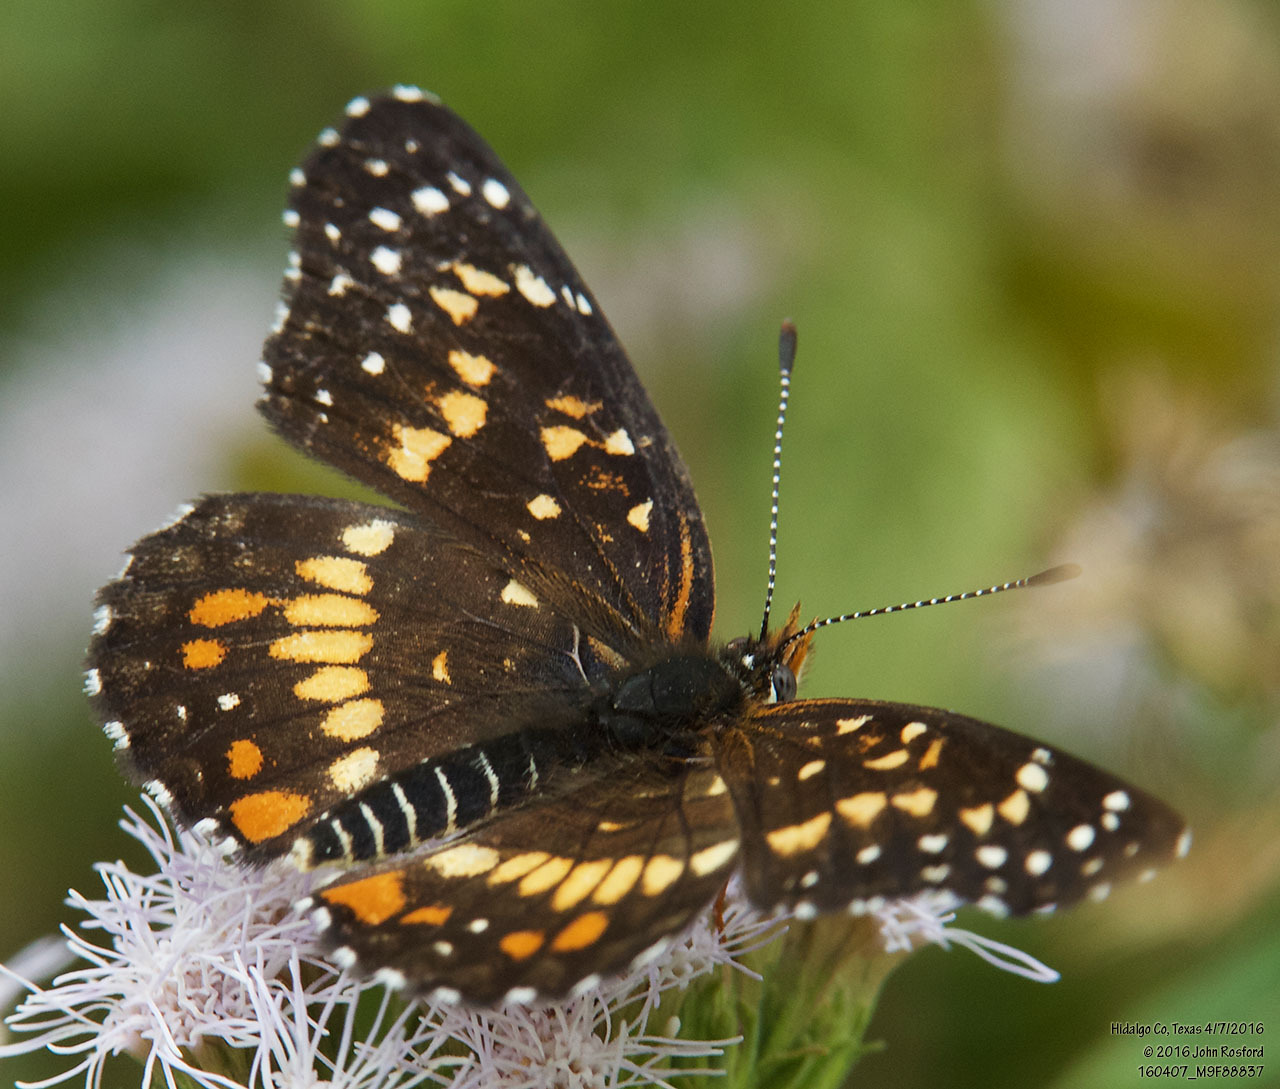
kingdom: Animalia
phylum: Arthropoda
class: Insecta
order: Lepidoptera
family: Nymphalidae
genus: Chlosyne
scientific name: Chlosyne endeis
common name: Banded checkerspot
